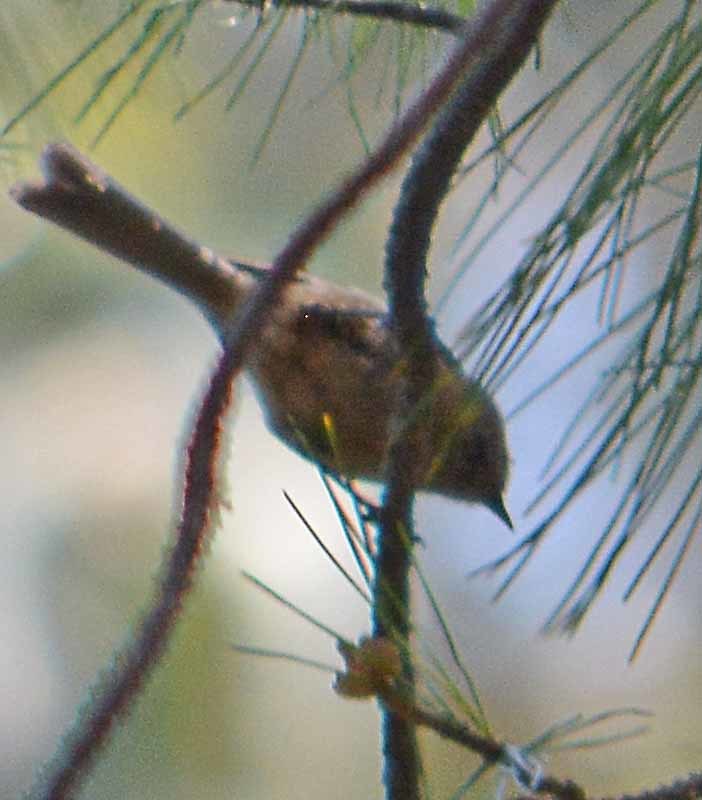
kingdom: Animalia
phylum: Chordata
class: Aves
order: Passeriformes
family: Aegithalidae
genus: Psaltriparus
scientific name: Psaltriparus minimus
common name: American bushtit
